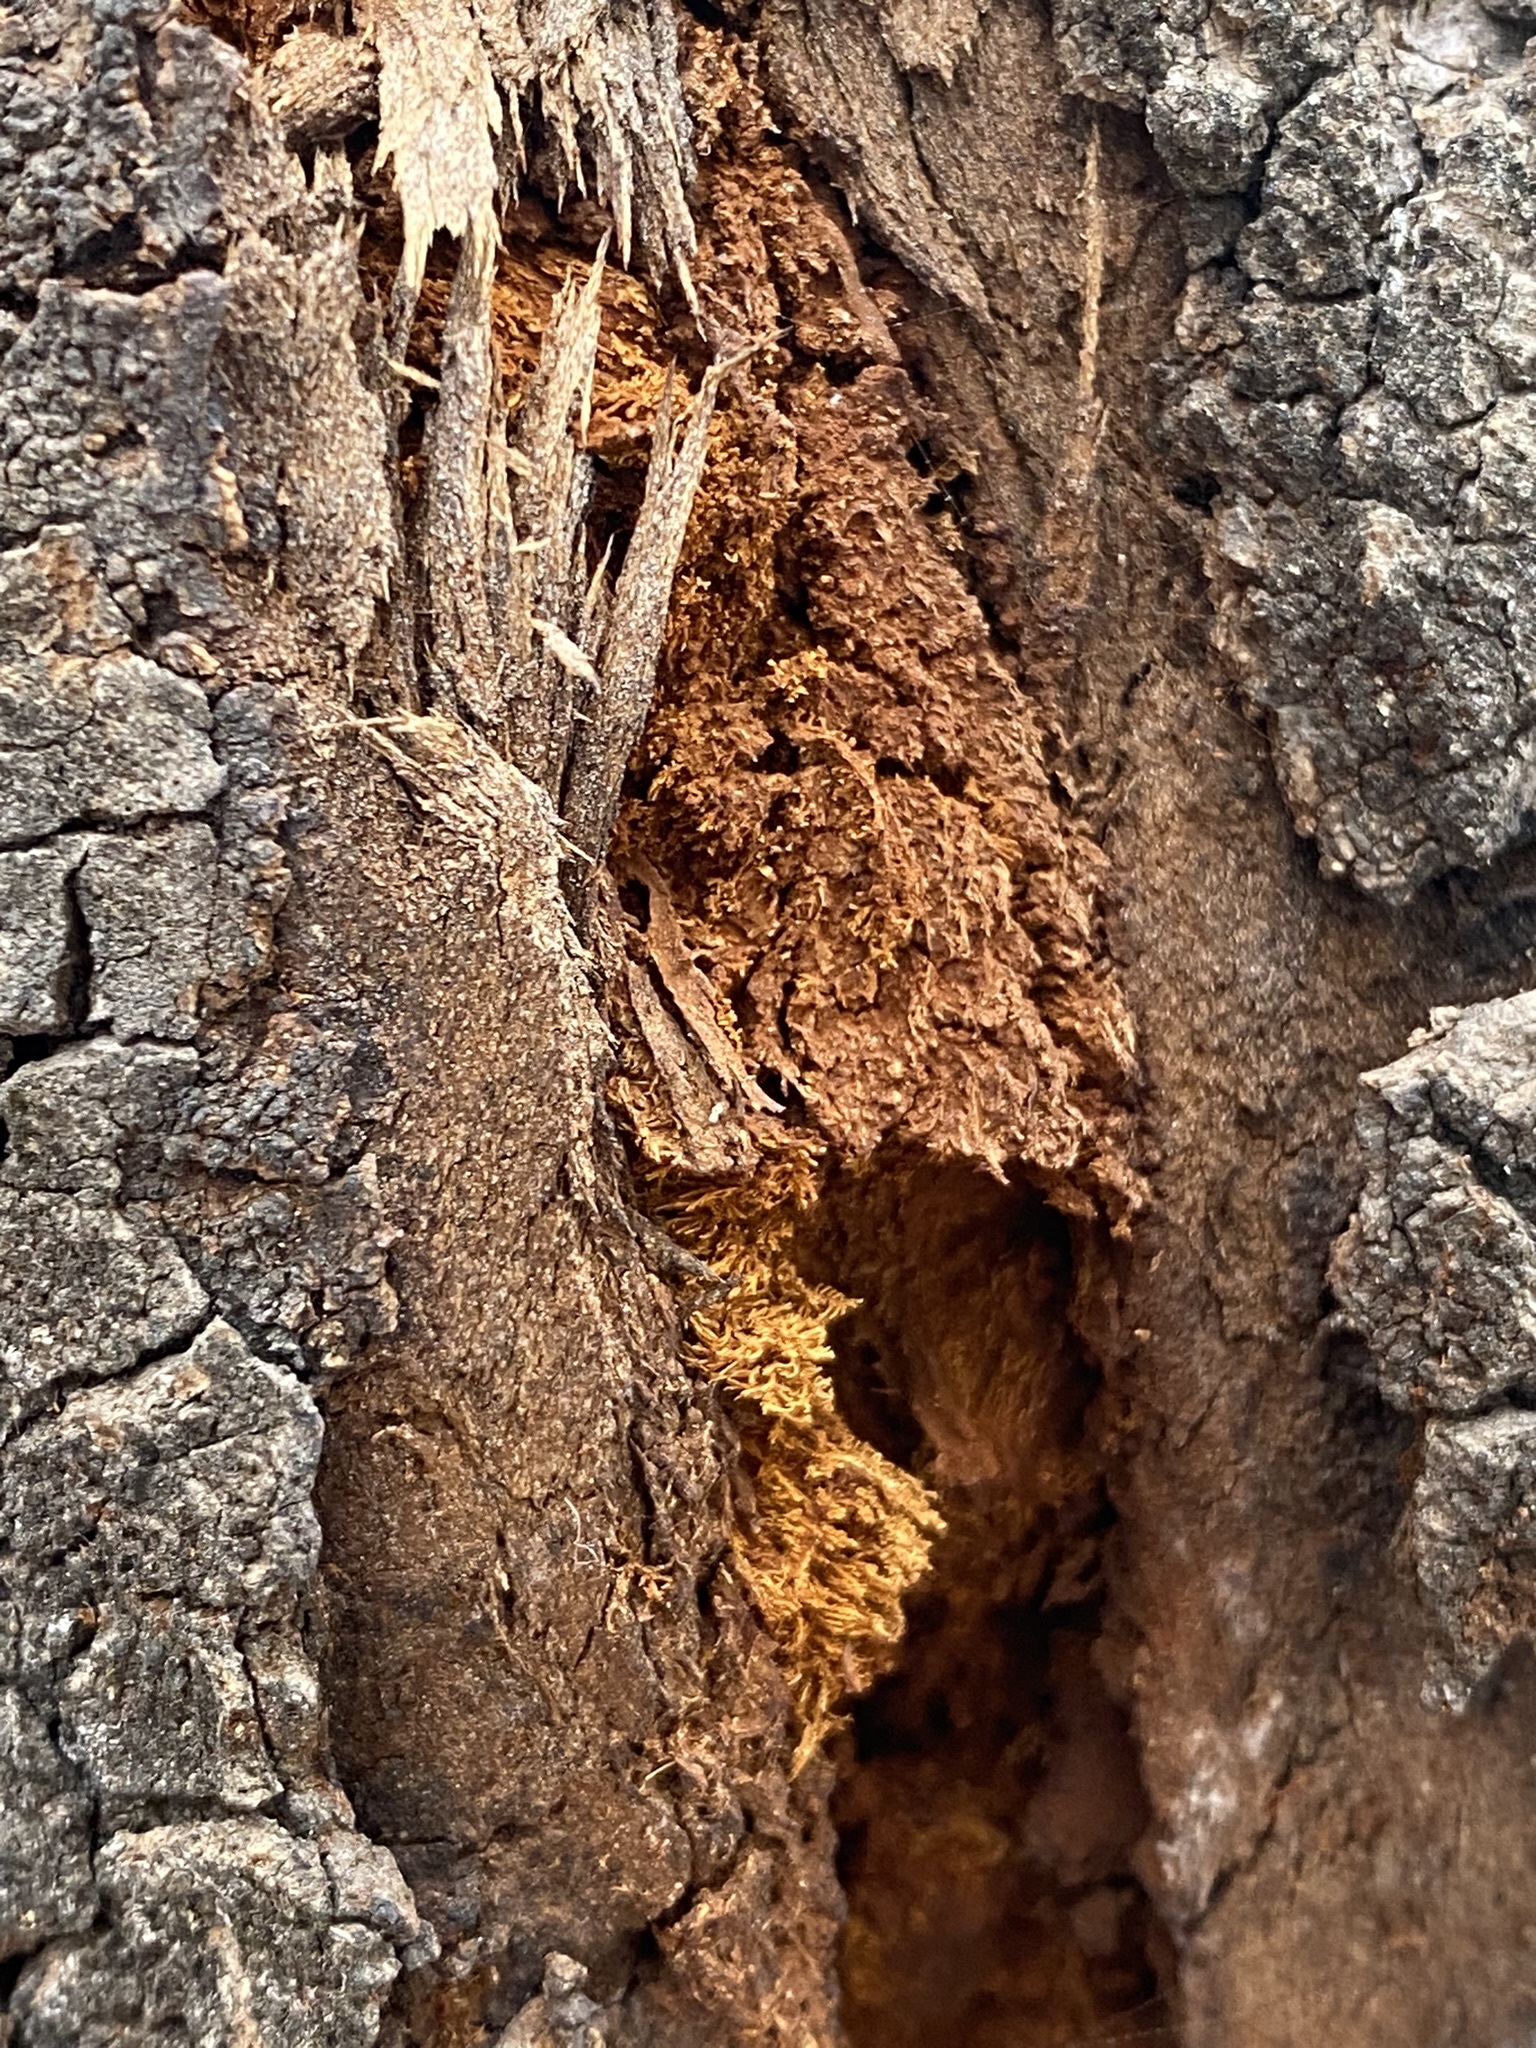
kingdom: Fungi
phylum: Basidiomycota
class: Agaricomycetes
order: Hymenochaetales
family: Hymenochaetaceae
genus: Inonotus
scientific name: Inonotus rickii
